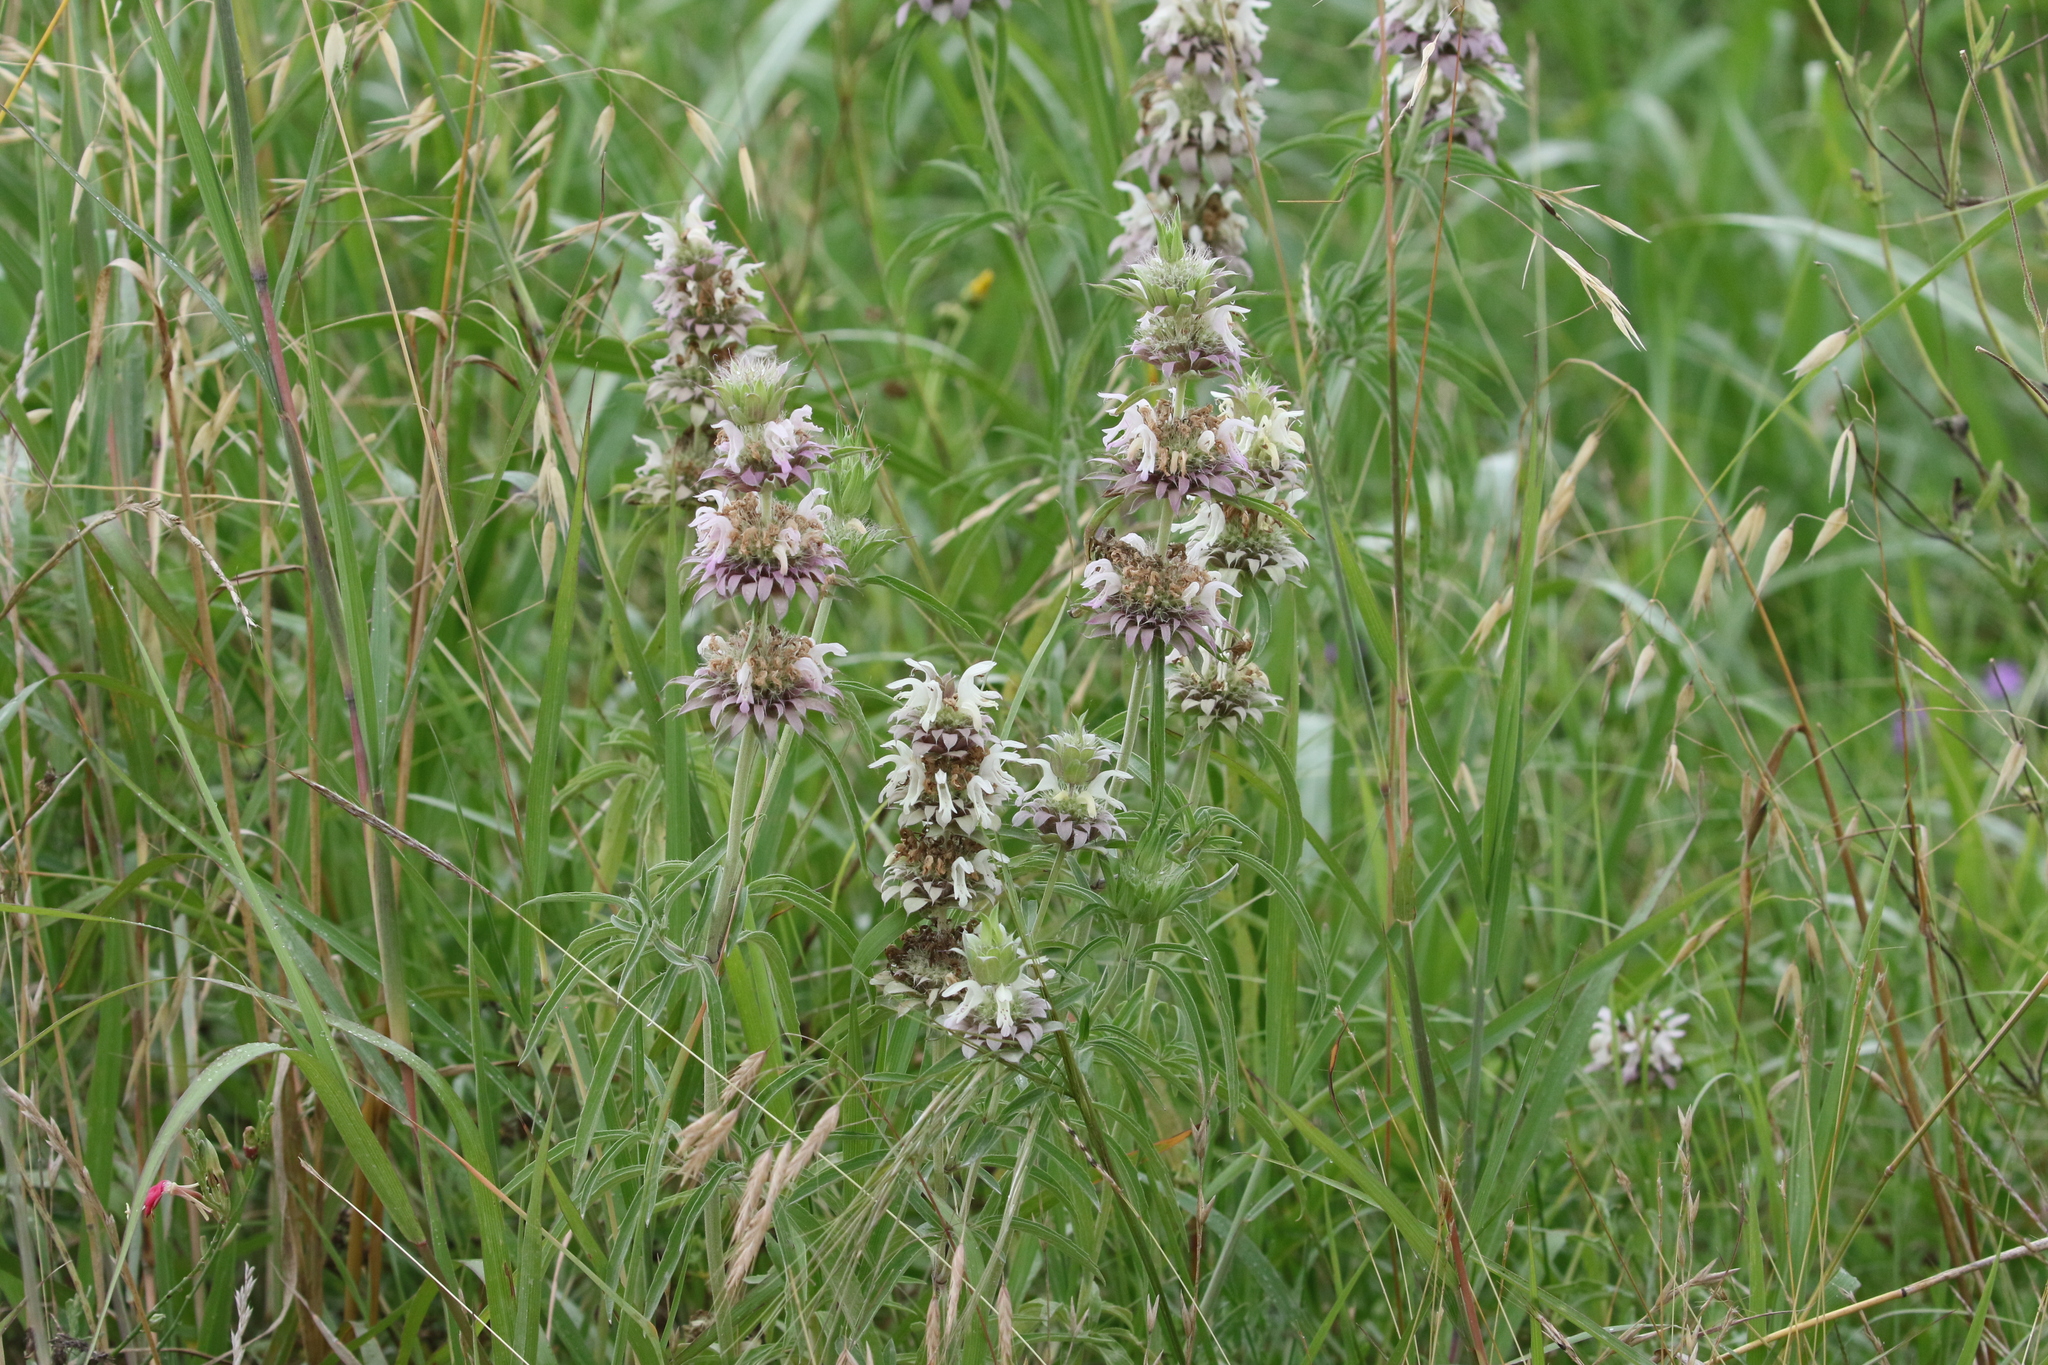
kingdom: Plantae
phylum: Tracheophyta
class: Magnoliopsida
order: Lamiales
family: Lamiaceae
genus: Monarda
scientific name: Monarda citriodora
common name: Lemon beebalm
